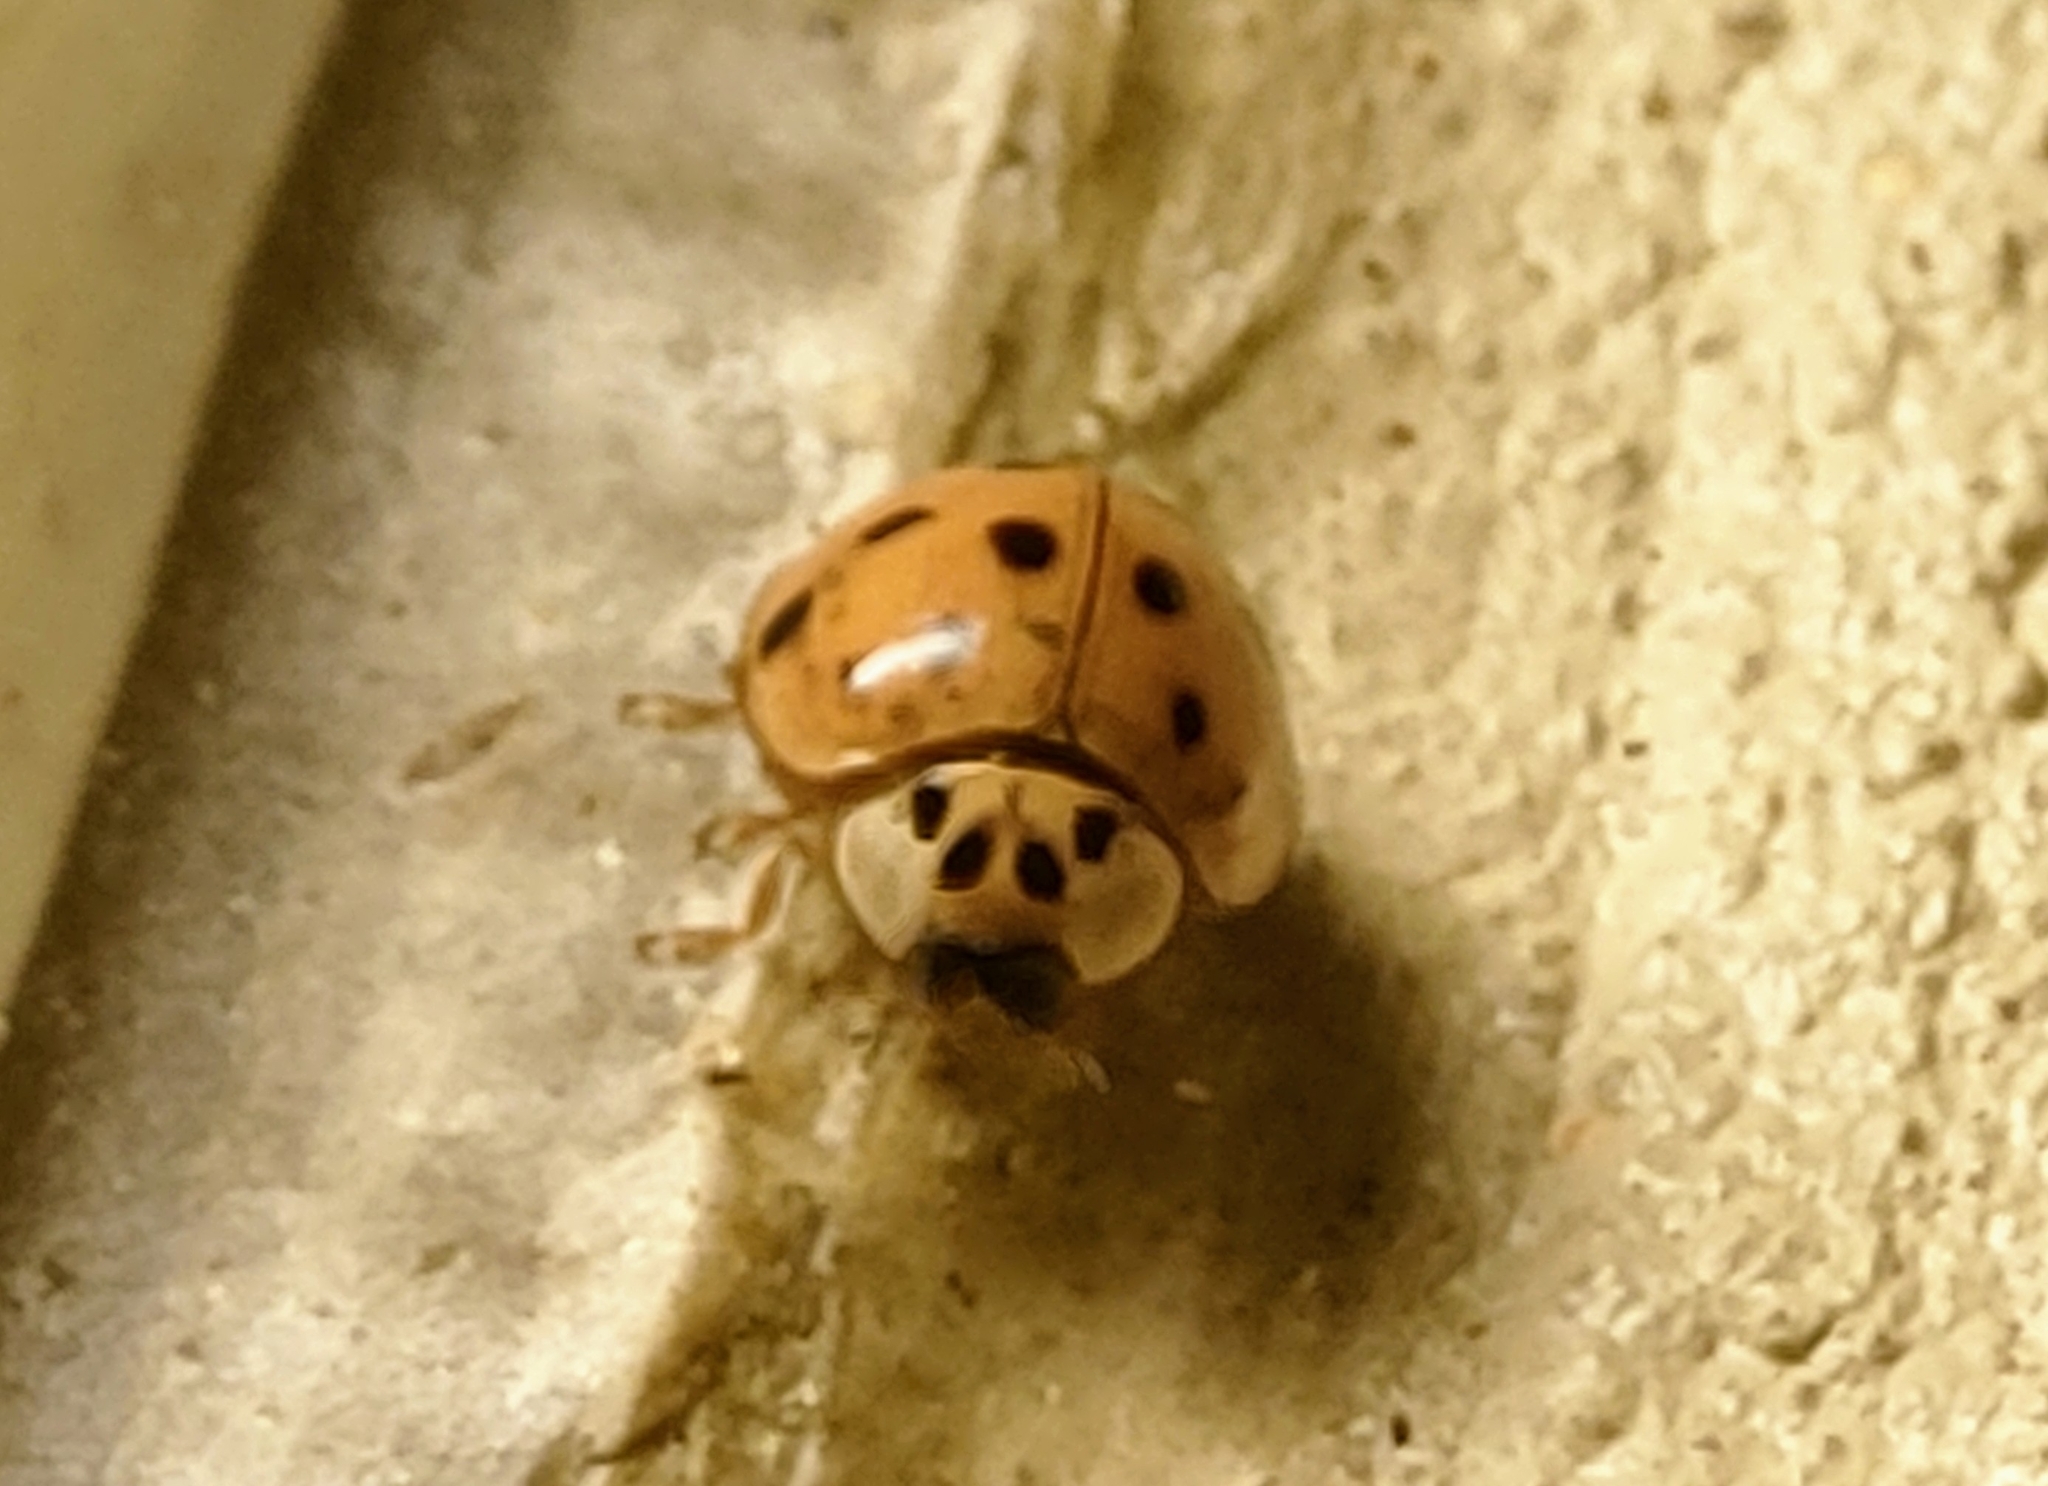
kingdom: Animalia
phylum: Arthropoda
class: Insecta
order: Coleoptera
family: Coccinellidae
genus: Harmonia
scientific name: Harmonia axyridis
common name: Harlequin ladybird
